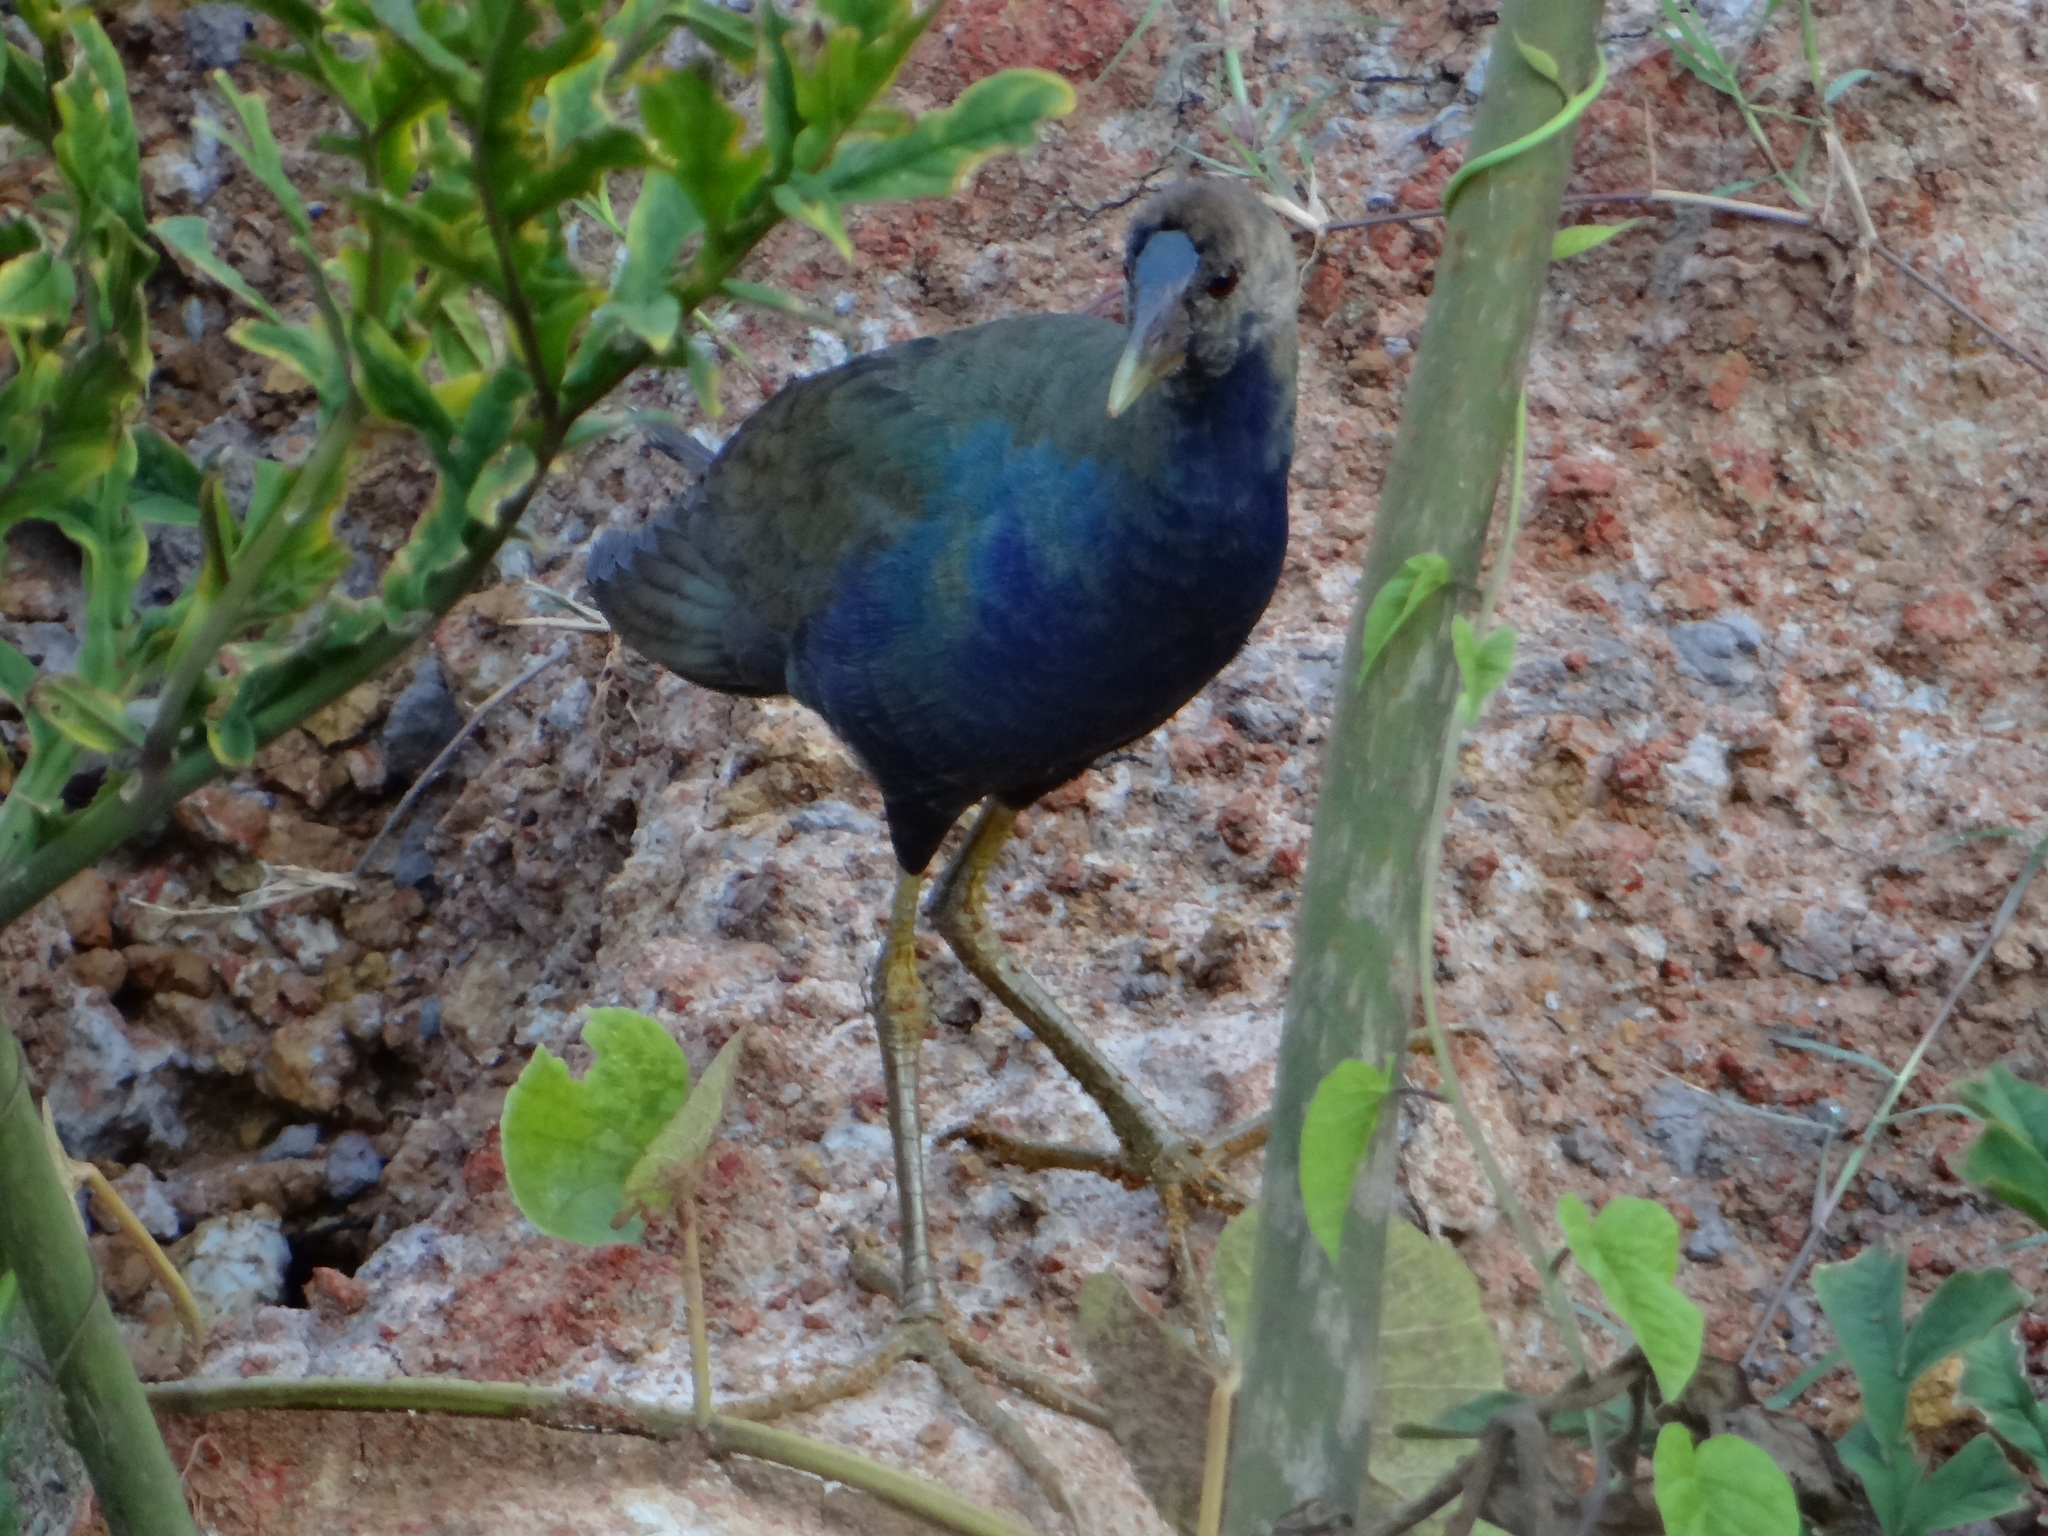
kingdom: Animalia
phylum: Chordata
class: Aves
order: Gruiformes
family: Rallidae
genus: Porphyrio
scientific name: Porphyrio martinica
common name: Purple gallinule
